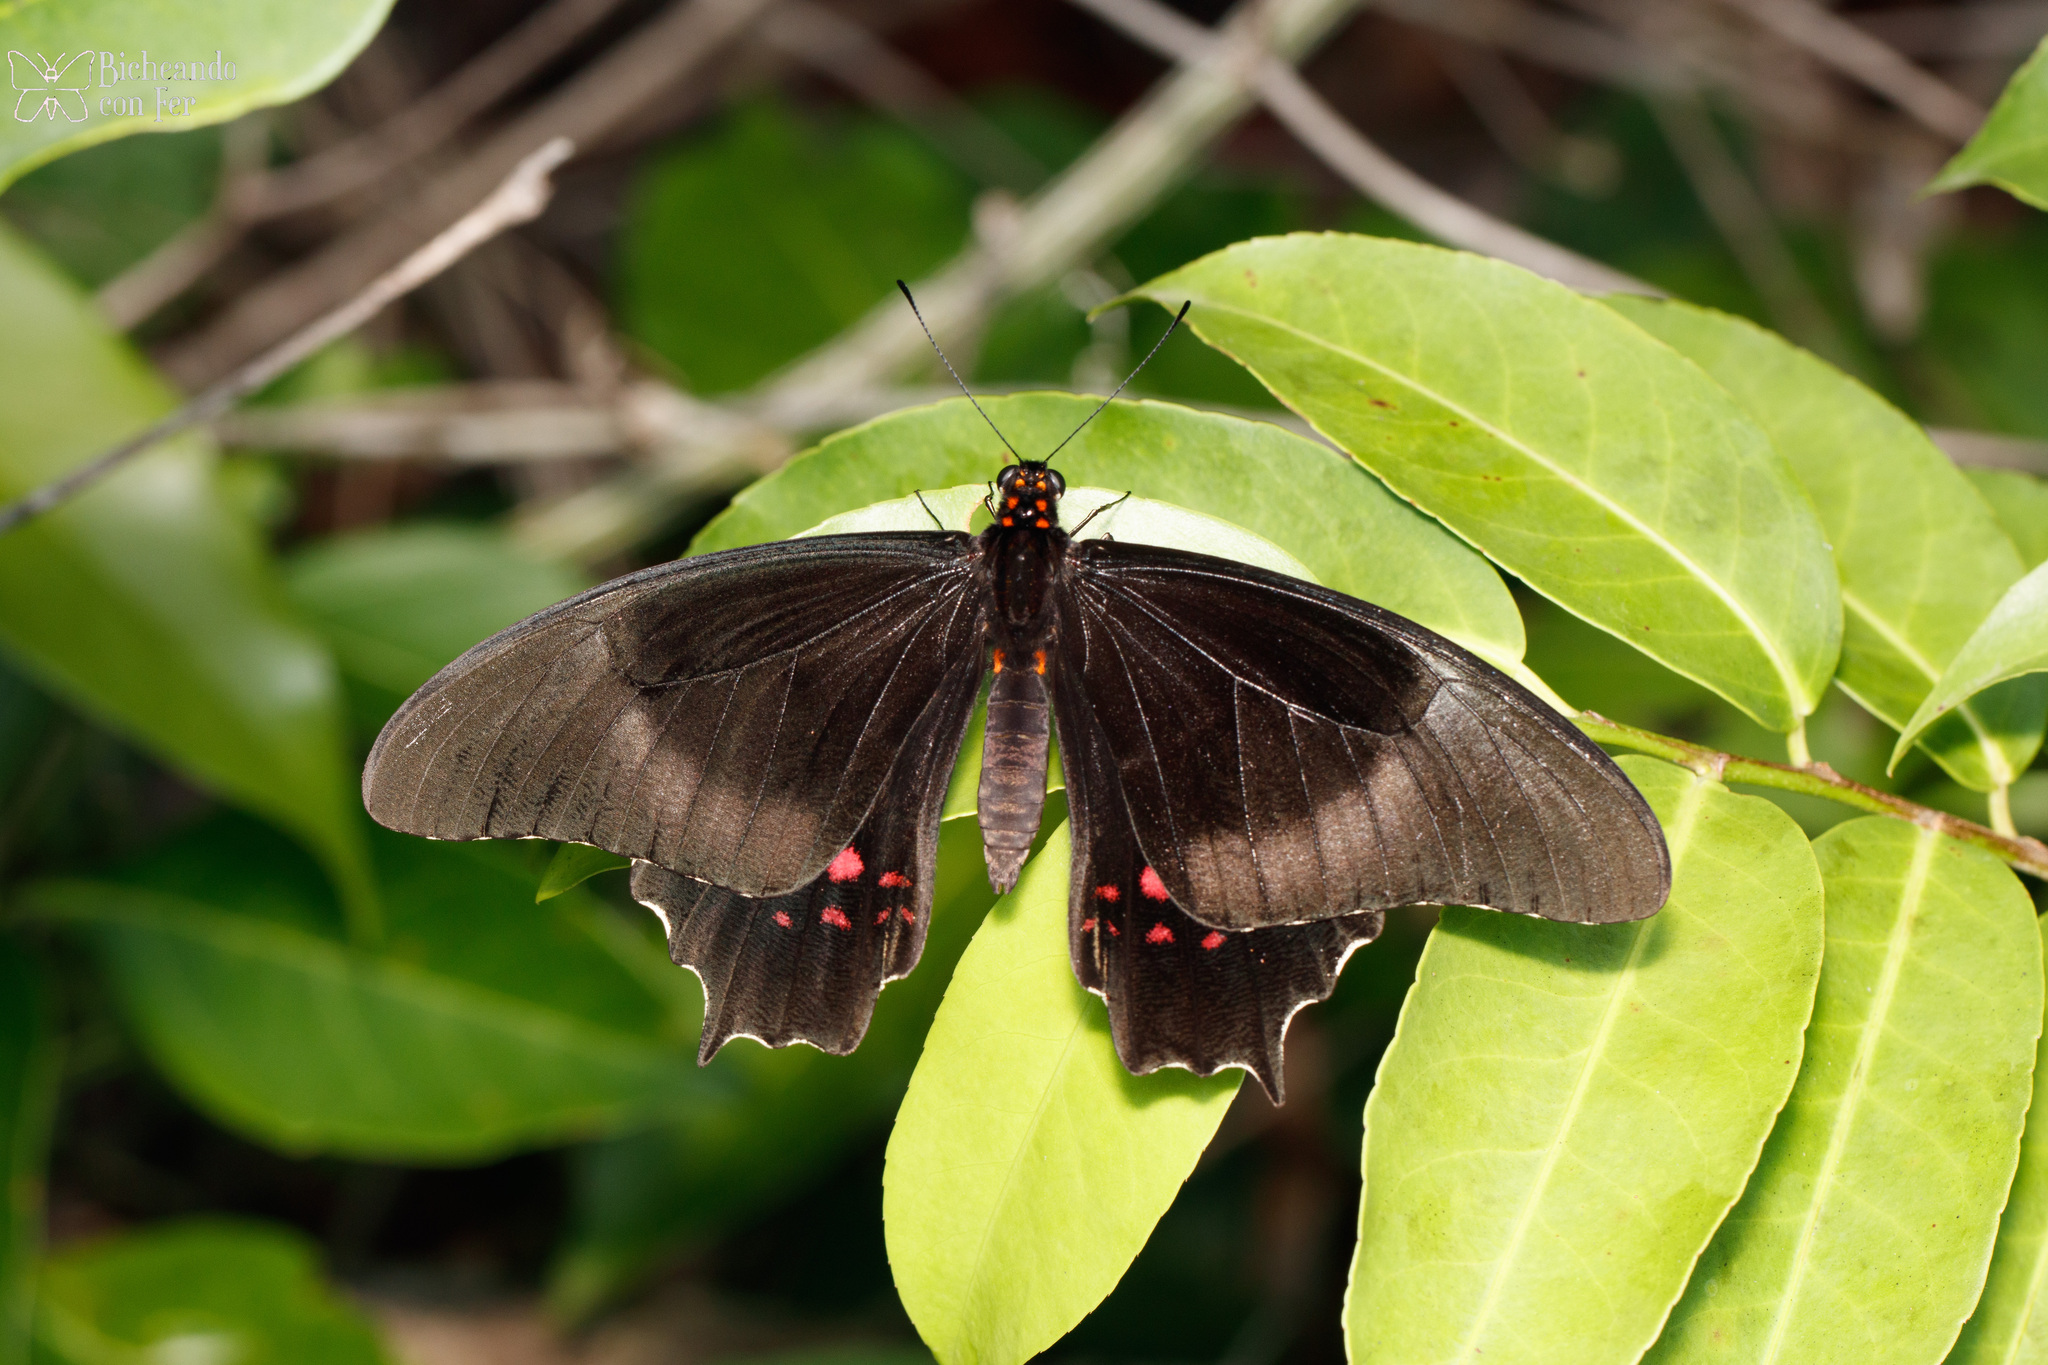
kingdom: Animalia
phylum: Arthropoda
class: Insecta
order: Lepidoptera
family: Papilionidae
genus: Heraclides
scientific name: Heraclides rogeri
